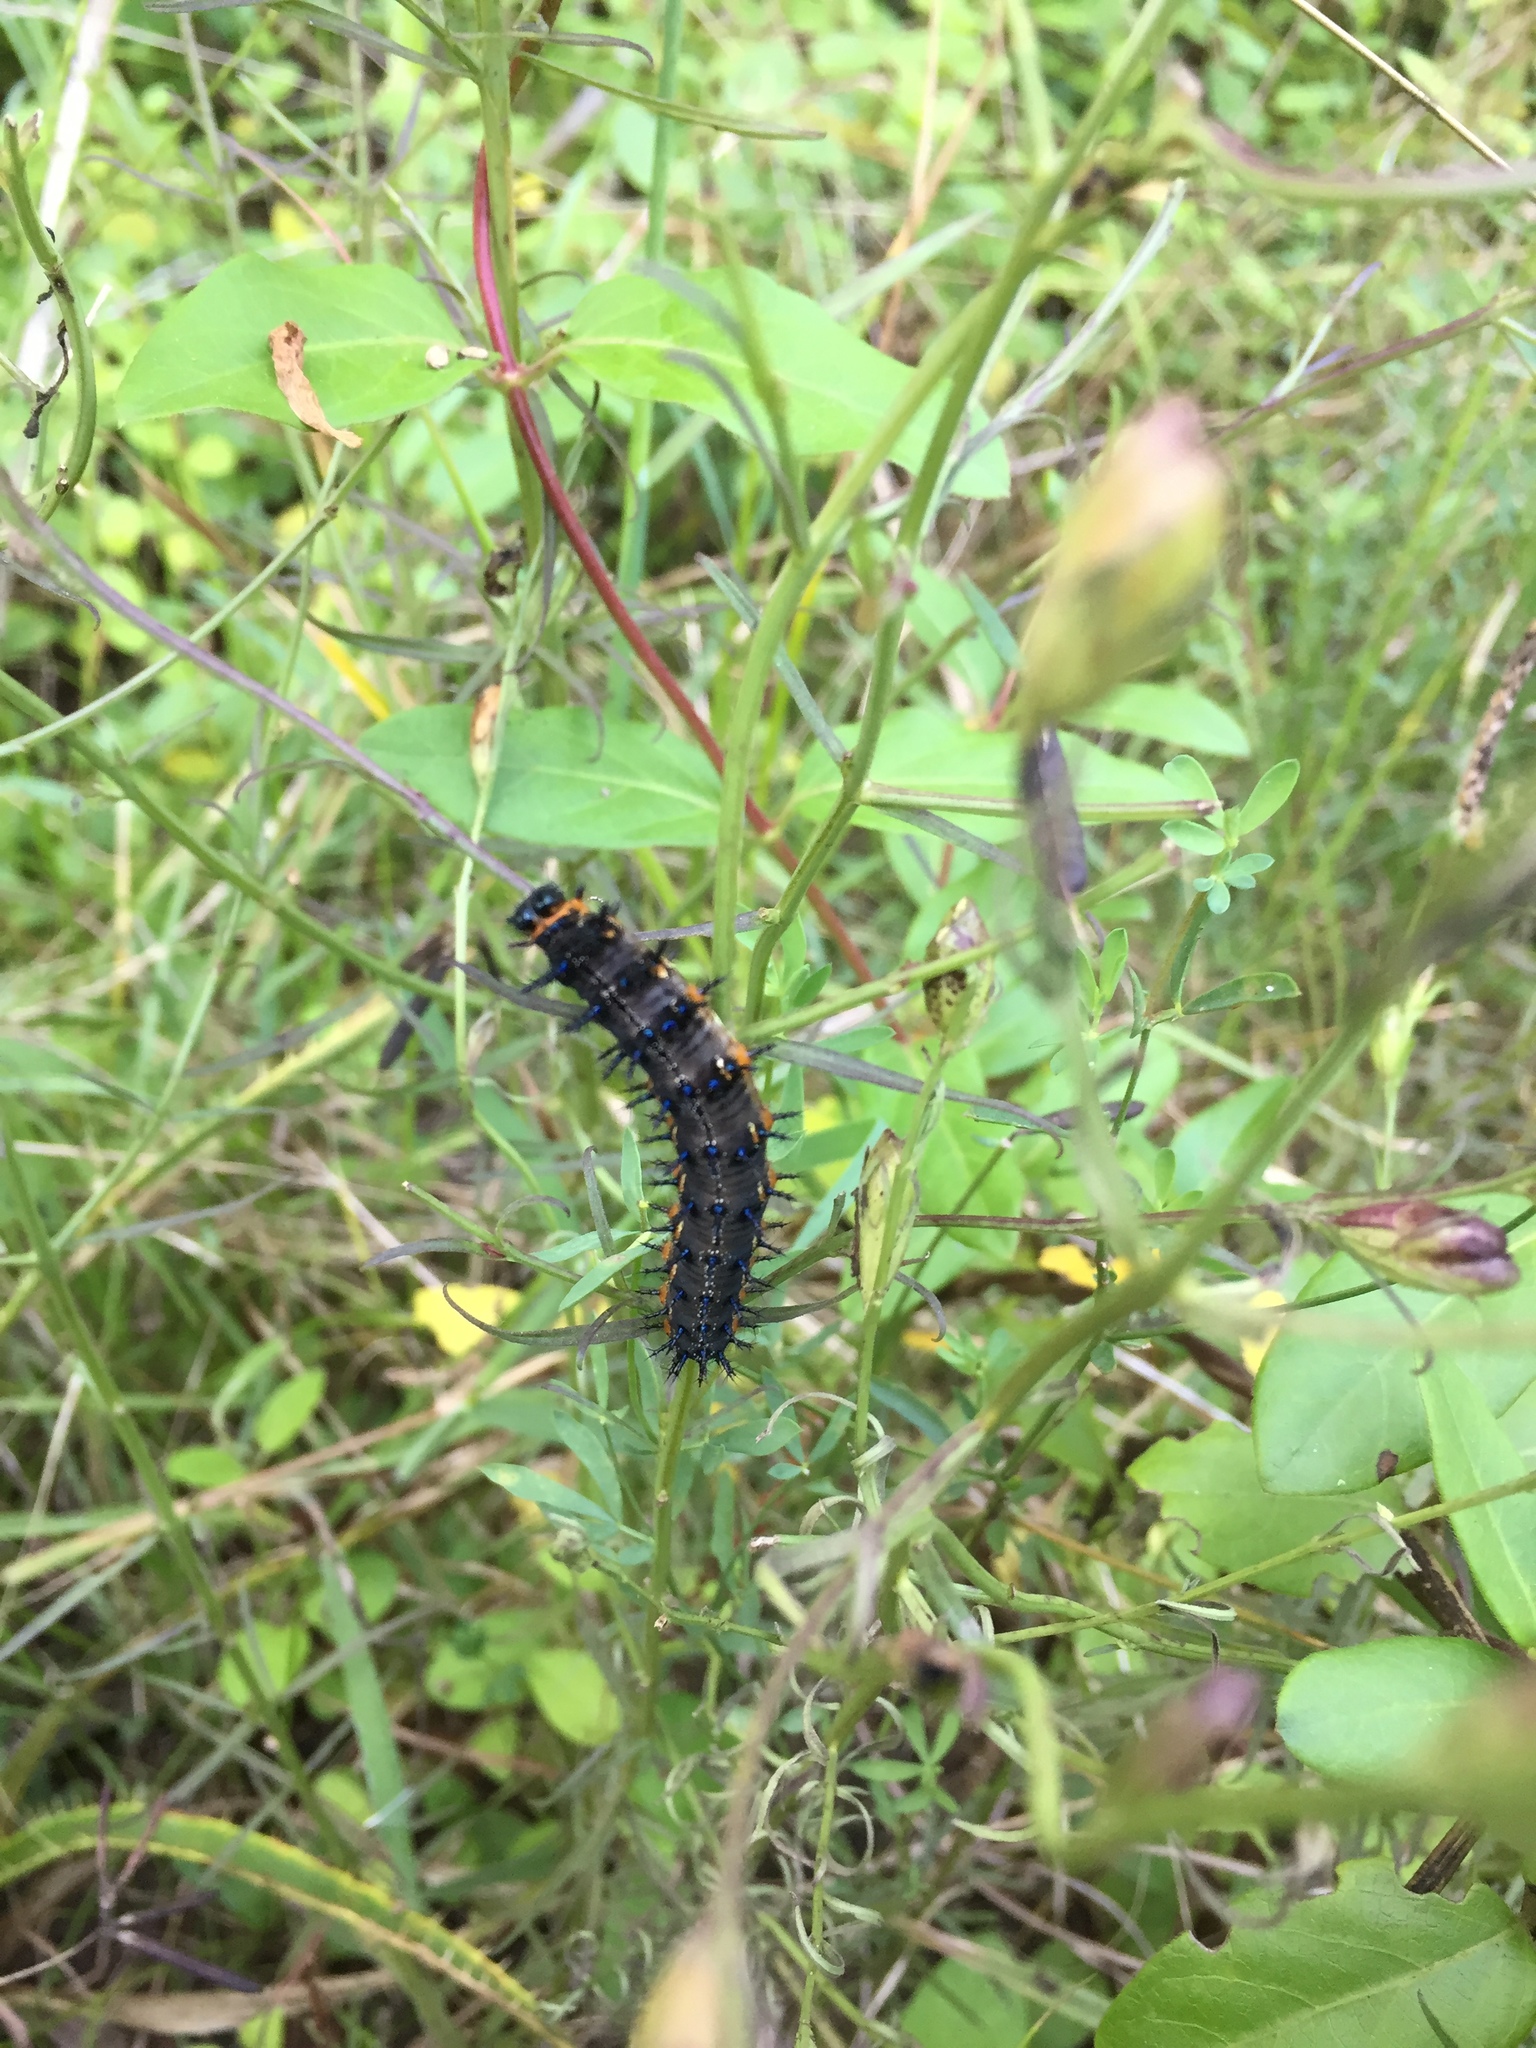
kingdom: Animalia
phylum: Arthropoda
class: Insecta
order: Lepidoptera
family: Nymphalidae
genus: Junonia
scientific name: Junonia lavinia
